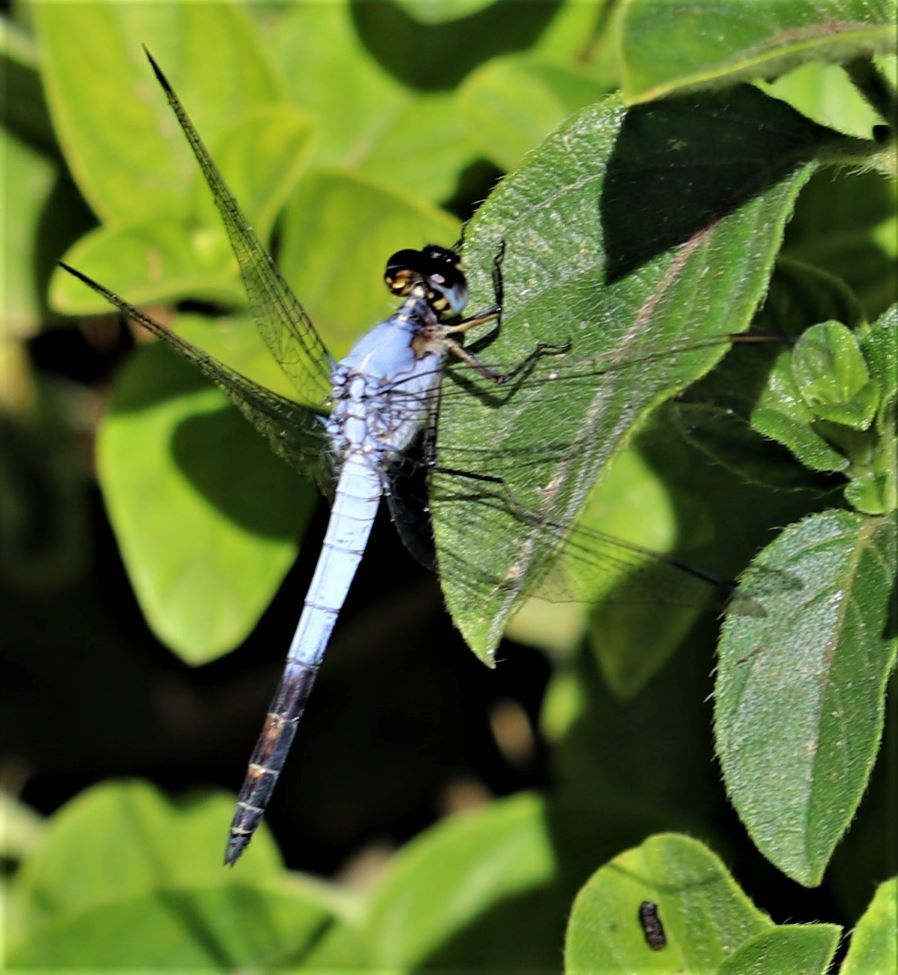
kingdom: Animalia
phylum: Arthropoda
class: Insecta
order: Odonata
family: Libellulidae
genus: Nesciothemis
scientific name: Nesciothemis farinosa
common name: Eastern blacktail
